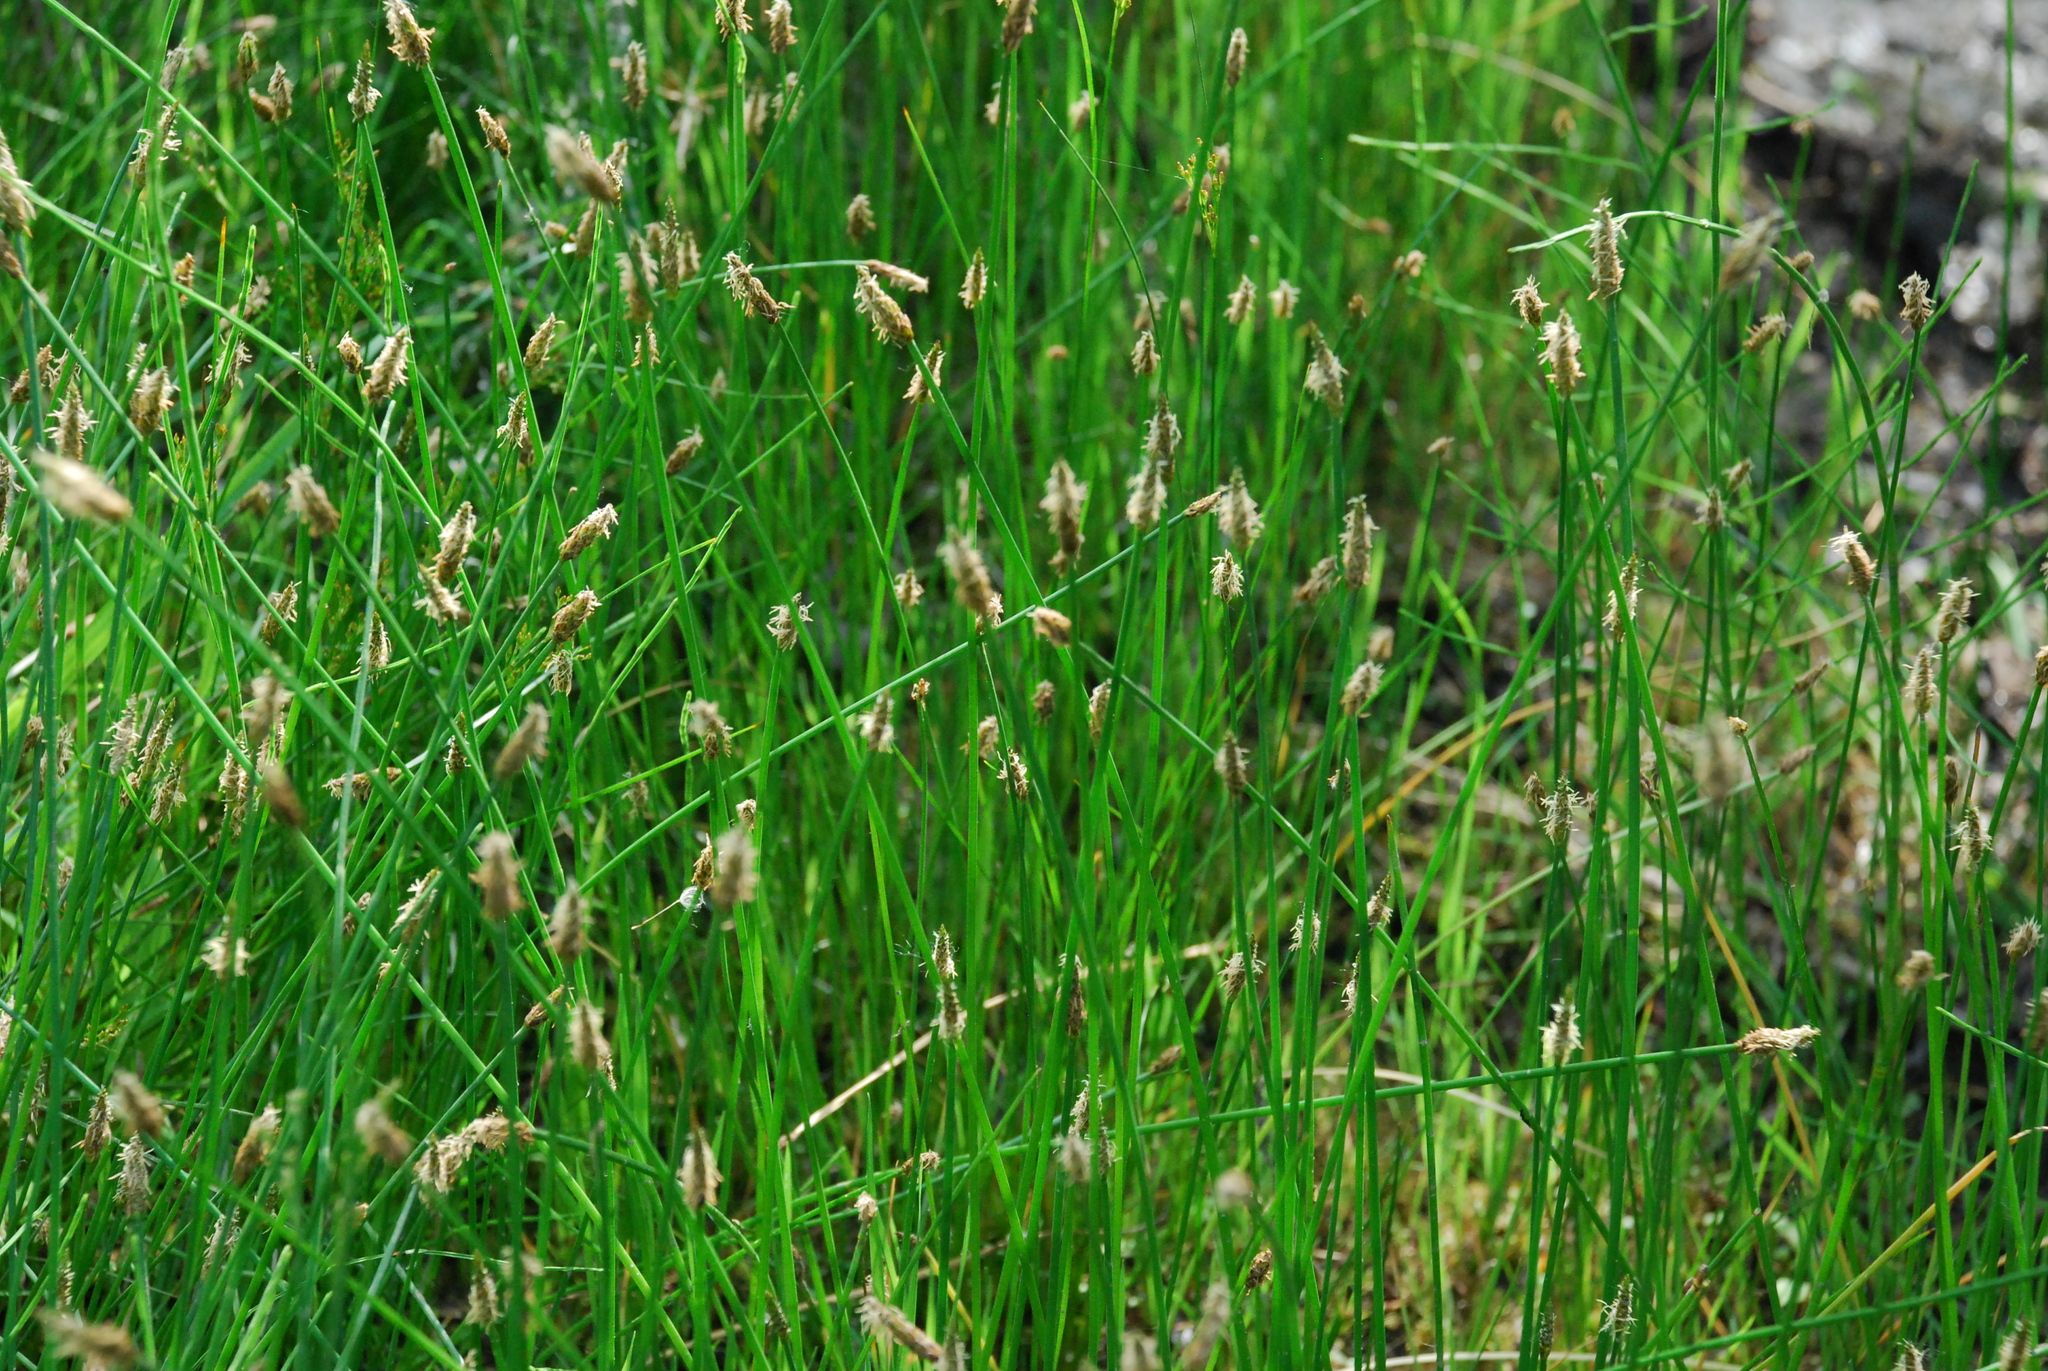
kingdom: Plantae
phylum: Tracheophyta
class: Liliopsida
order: Poales
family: Cyperaceae
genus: Eleocharis
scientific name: Eleocharis palustris
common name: Common spike-rush
